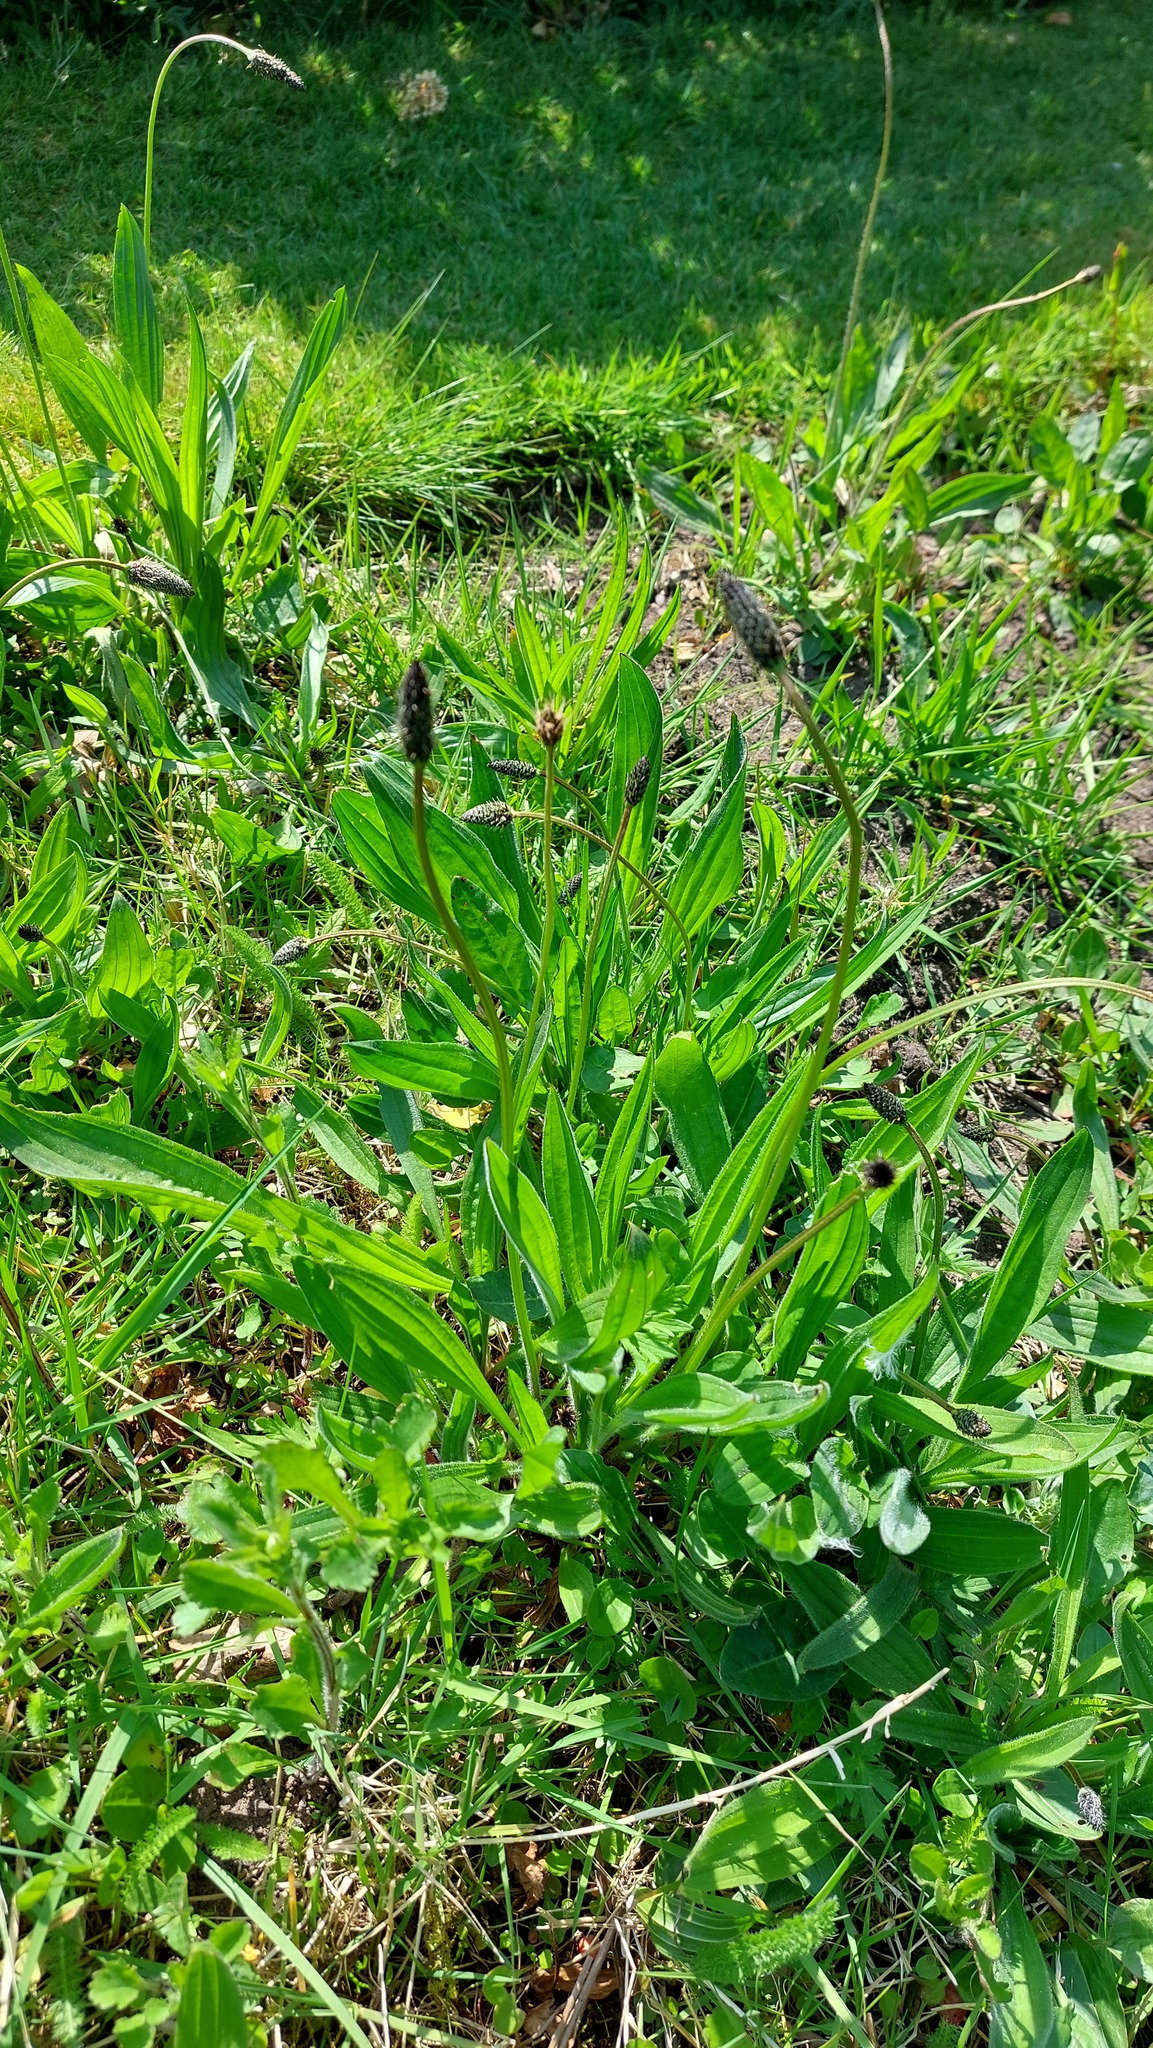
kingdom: Plantae
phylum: Tracheophyta
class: Magnoliopsida
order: Lamiales
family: Plantaginaceae
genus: Plantago
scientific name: Plantago lanceolata
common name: Ribwort plantain
